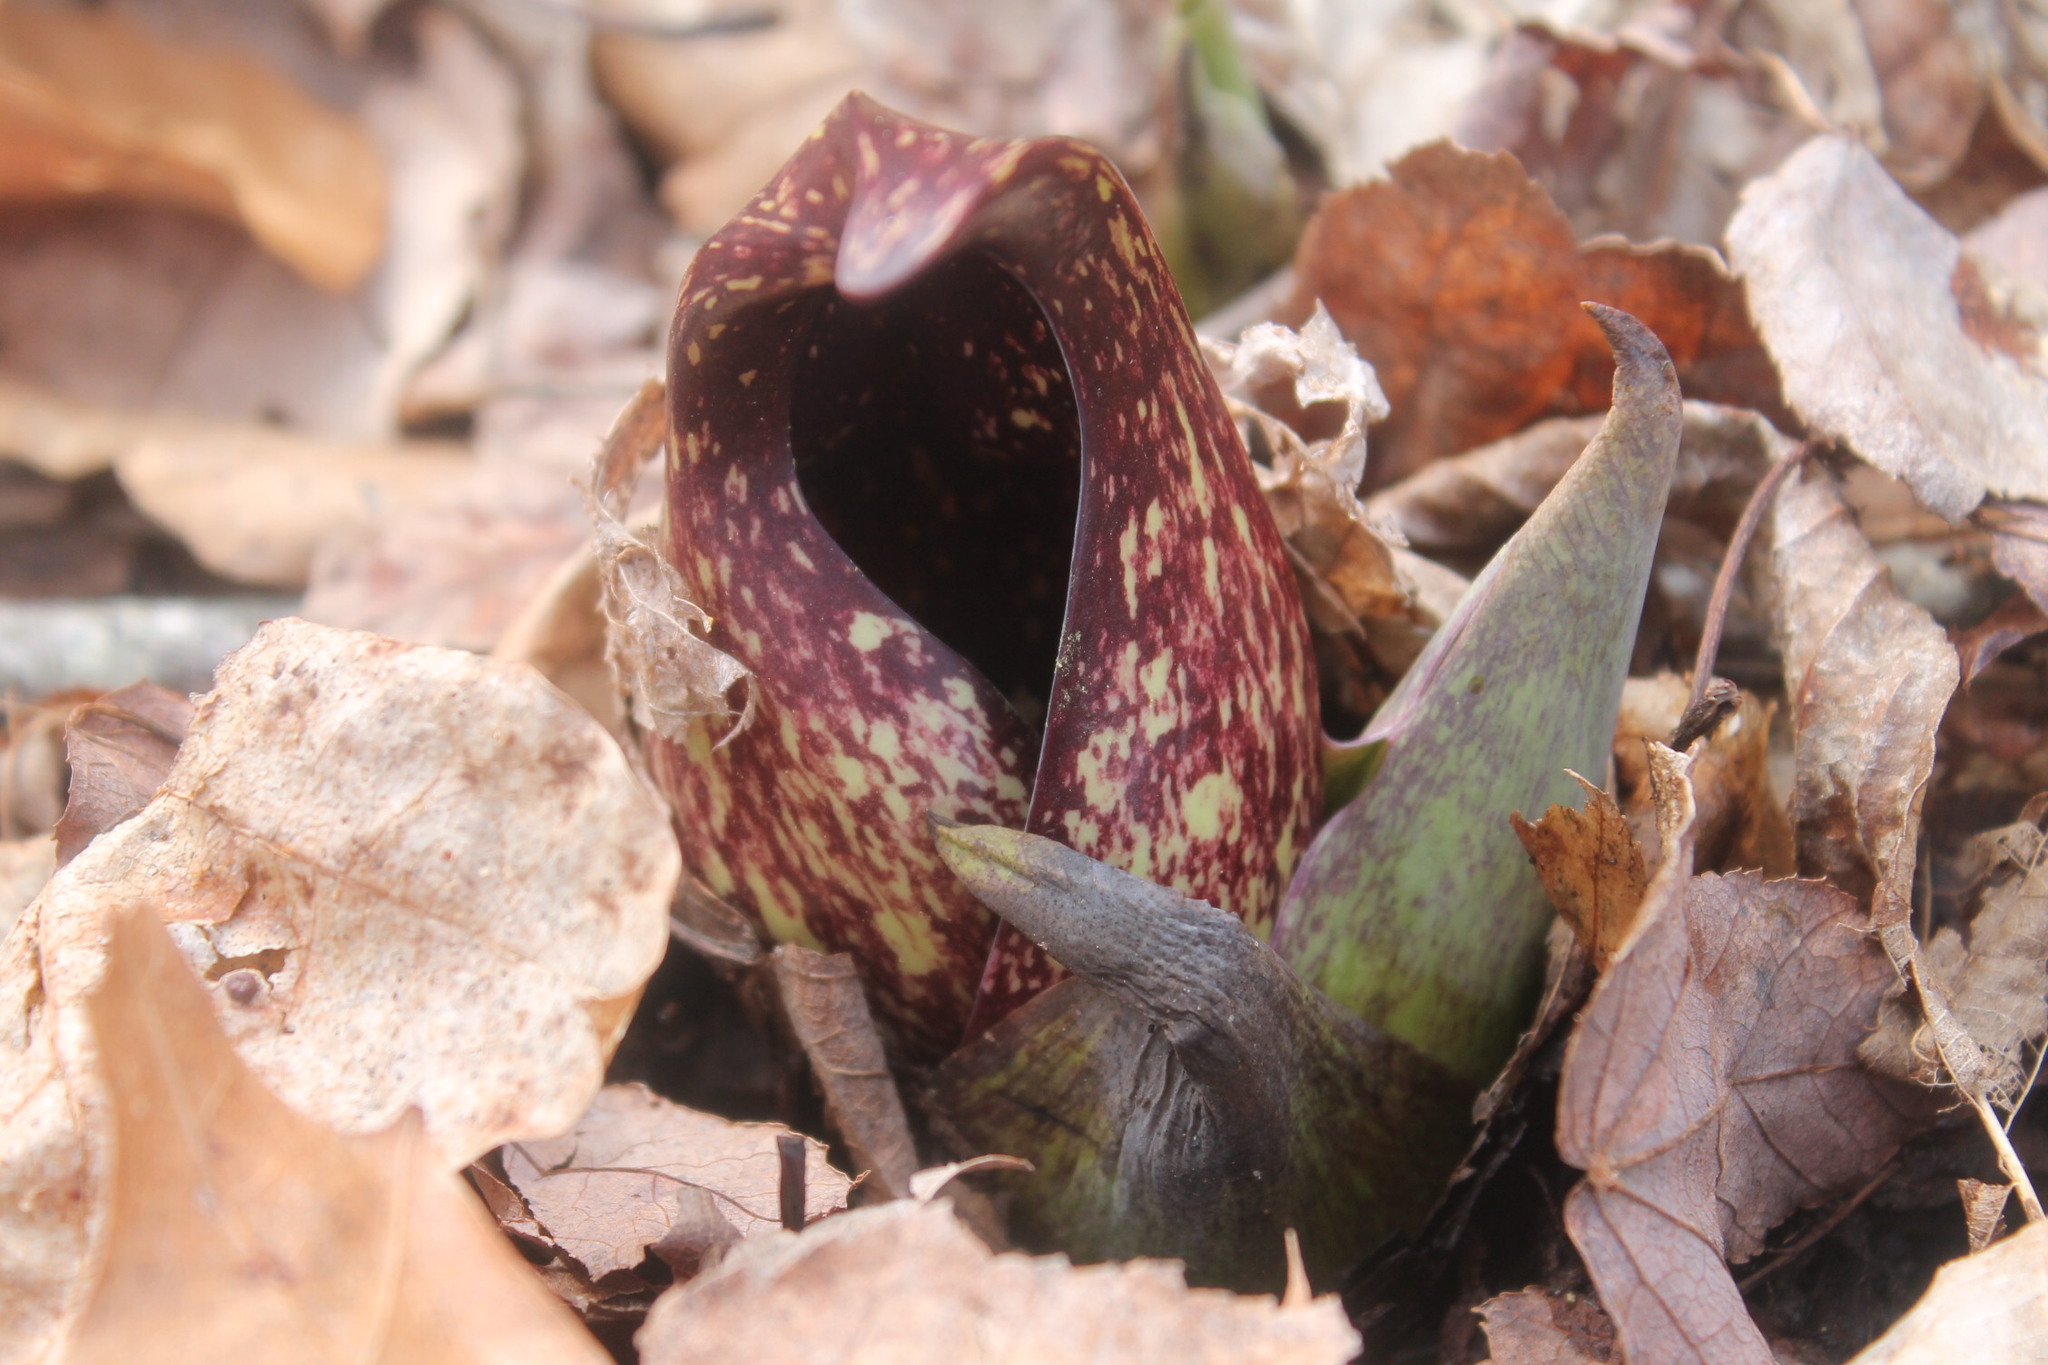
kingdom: Plantae
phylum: Tracheophyta
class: Liliopsida
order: Alismatales
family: Araceae
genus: Symplocarpus
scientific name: Symplocarpus foetidus
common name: Eastern skunk cabbage
